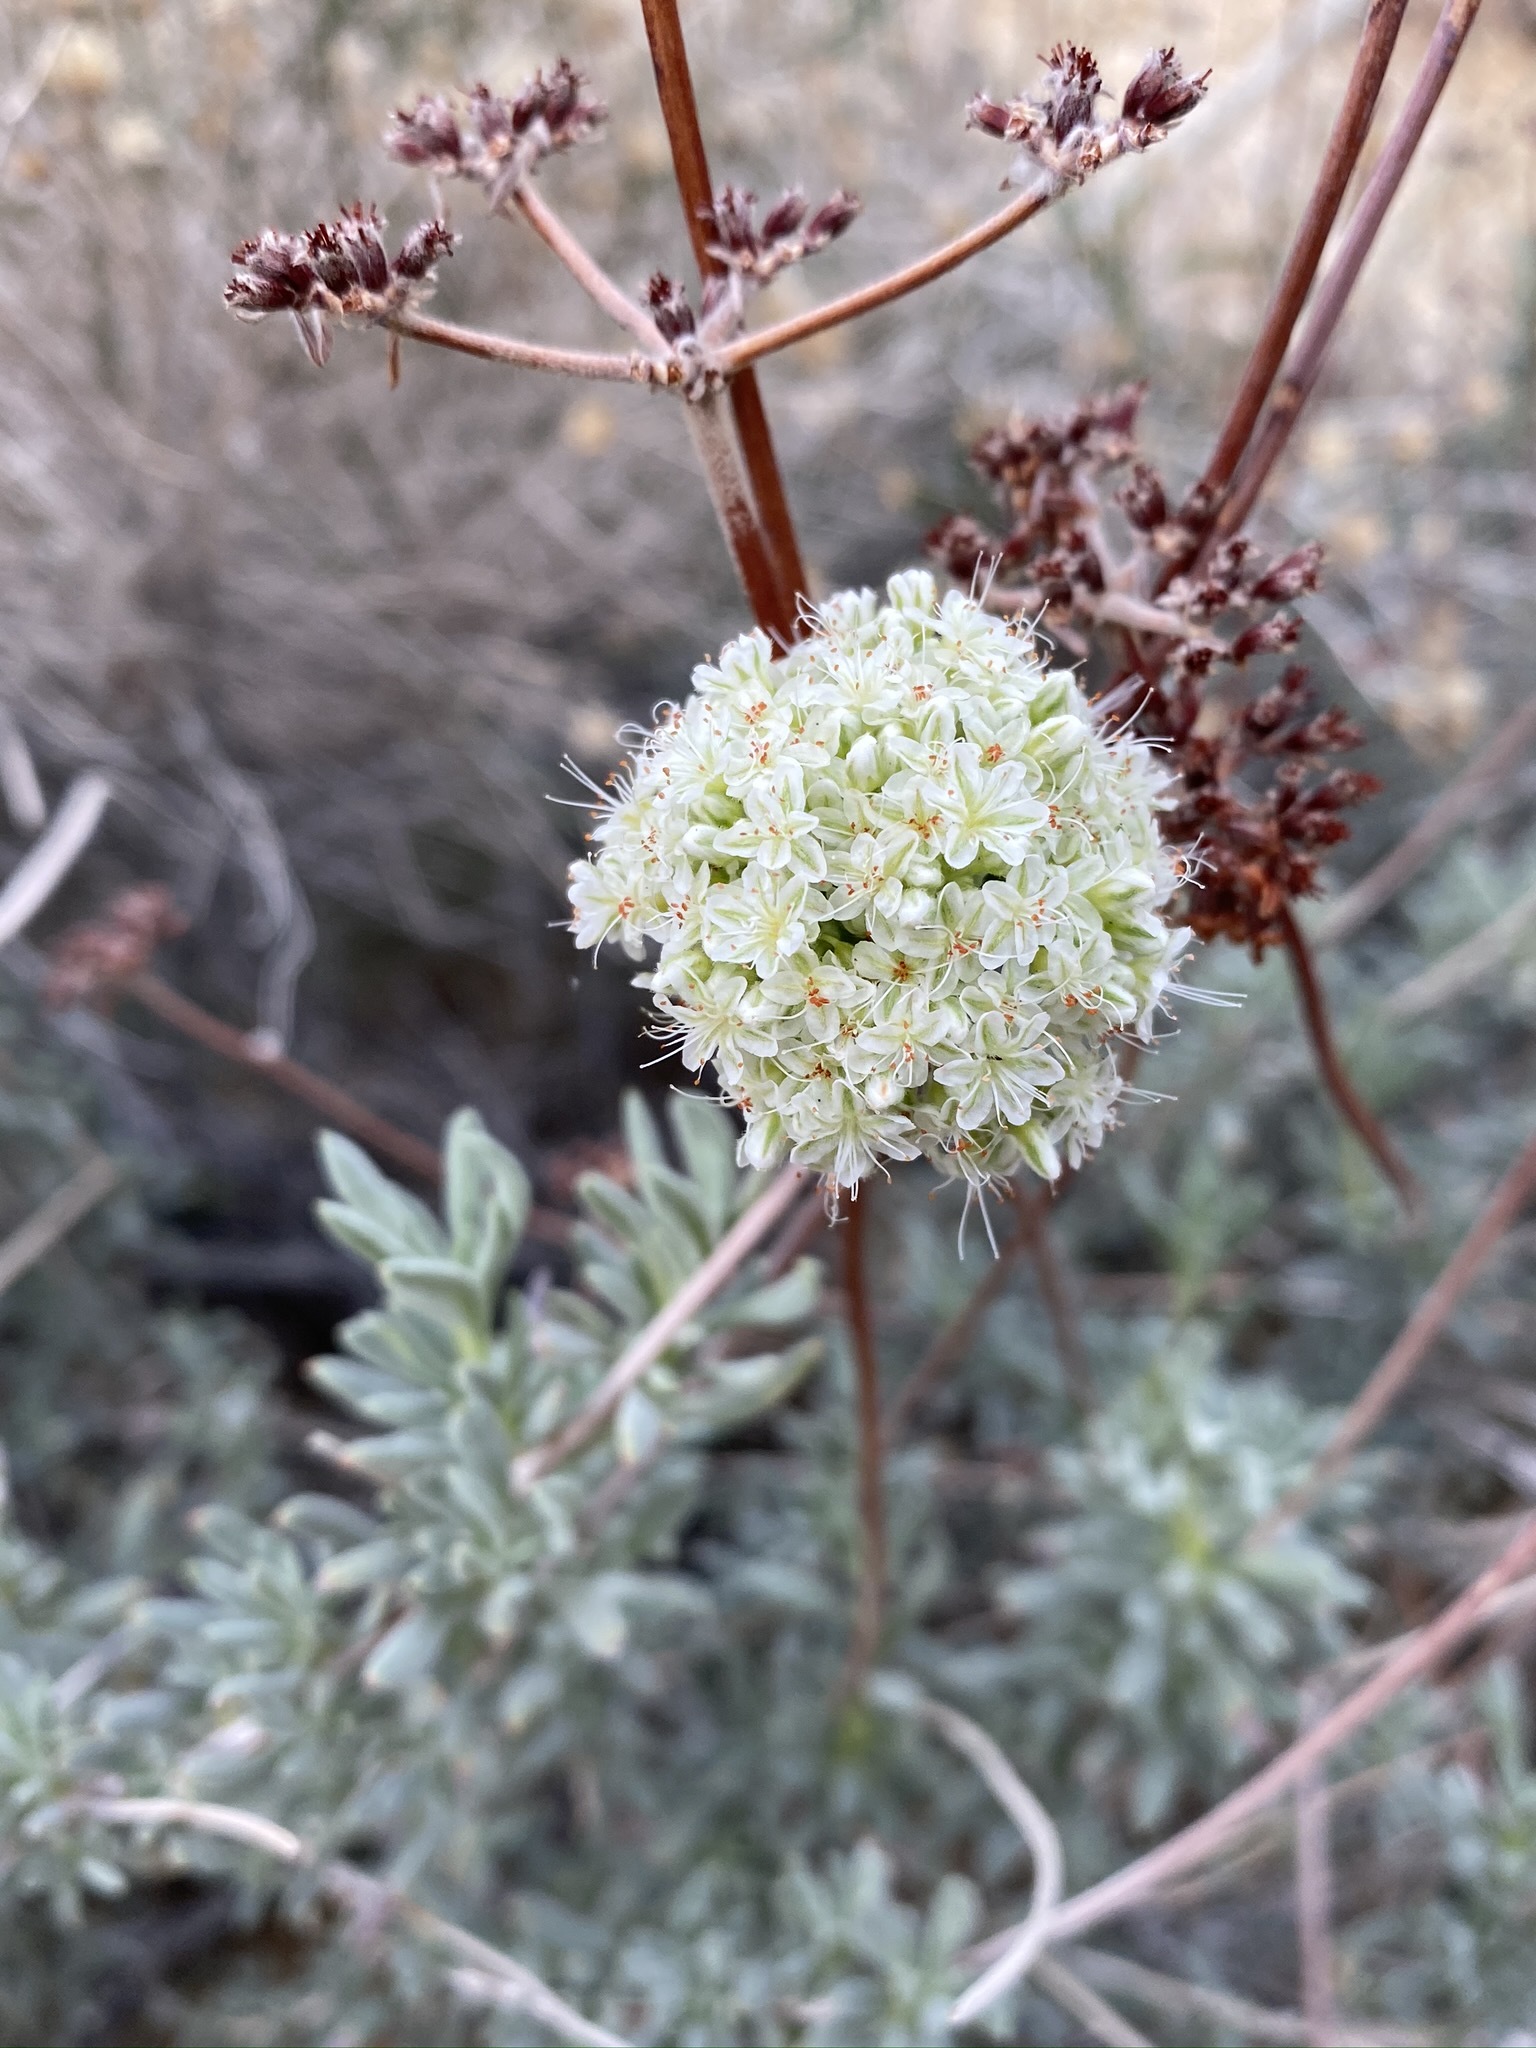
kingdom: Plantae
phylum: Tracheophyta
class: Magnoliopsida
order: Caryophyllales
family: Polygonaceae
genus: Eriogonum
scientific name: Eriogonum fasciculatum
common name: California wild buckwheat
